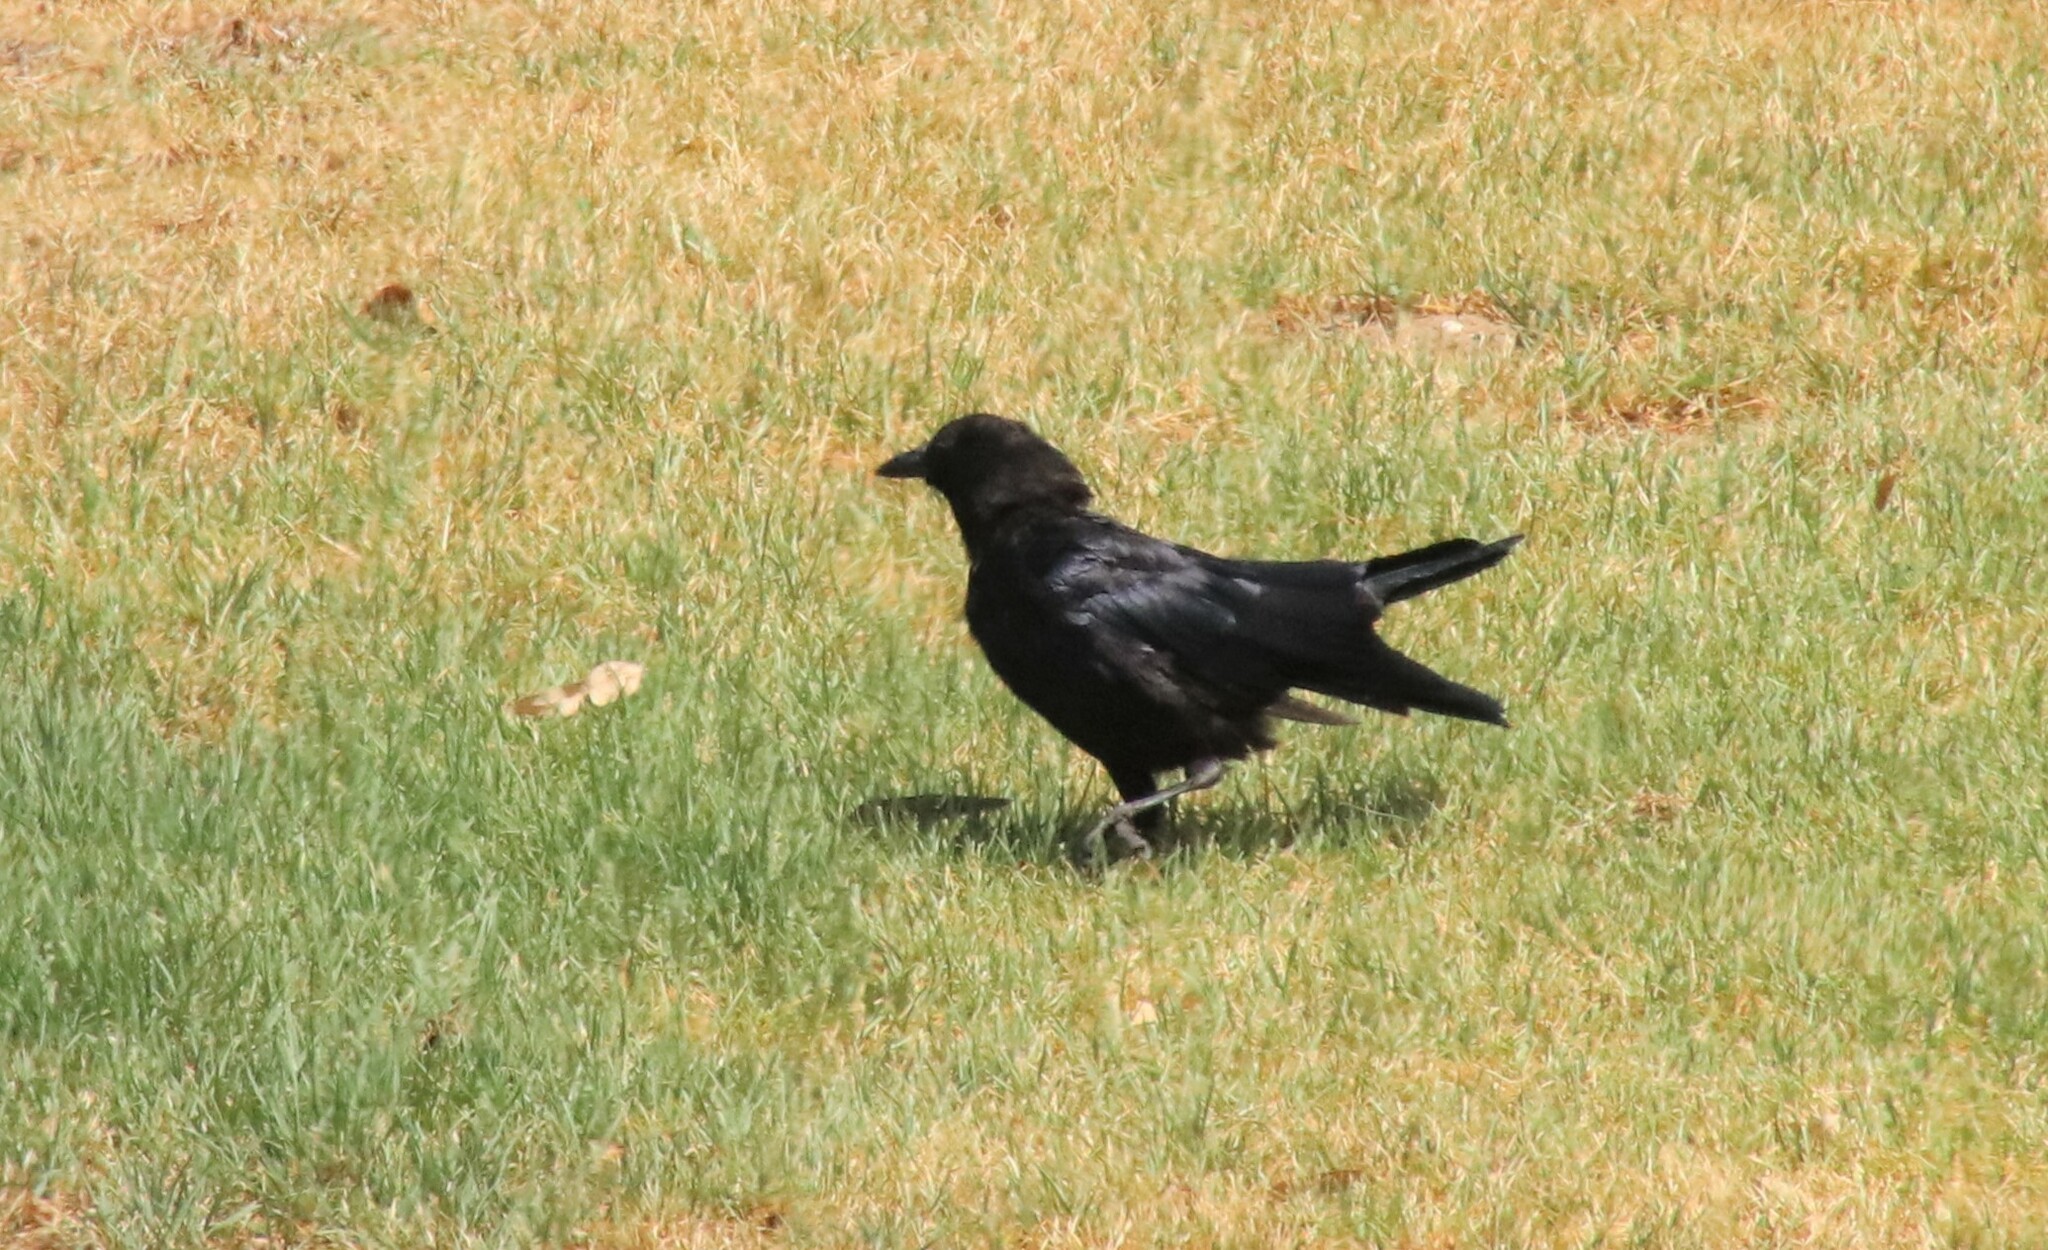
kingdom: Animalia
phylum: Chordata
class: Aves
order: Passeriformes
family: Corvidae
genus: Corvus
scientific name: Corvus brachyrhynchos
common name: American crow
